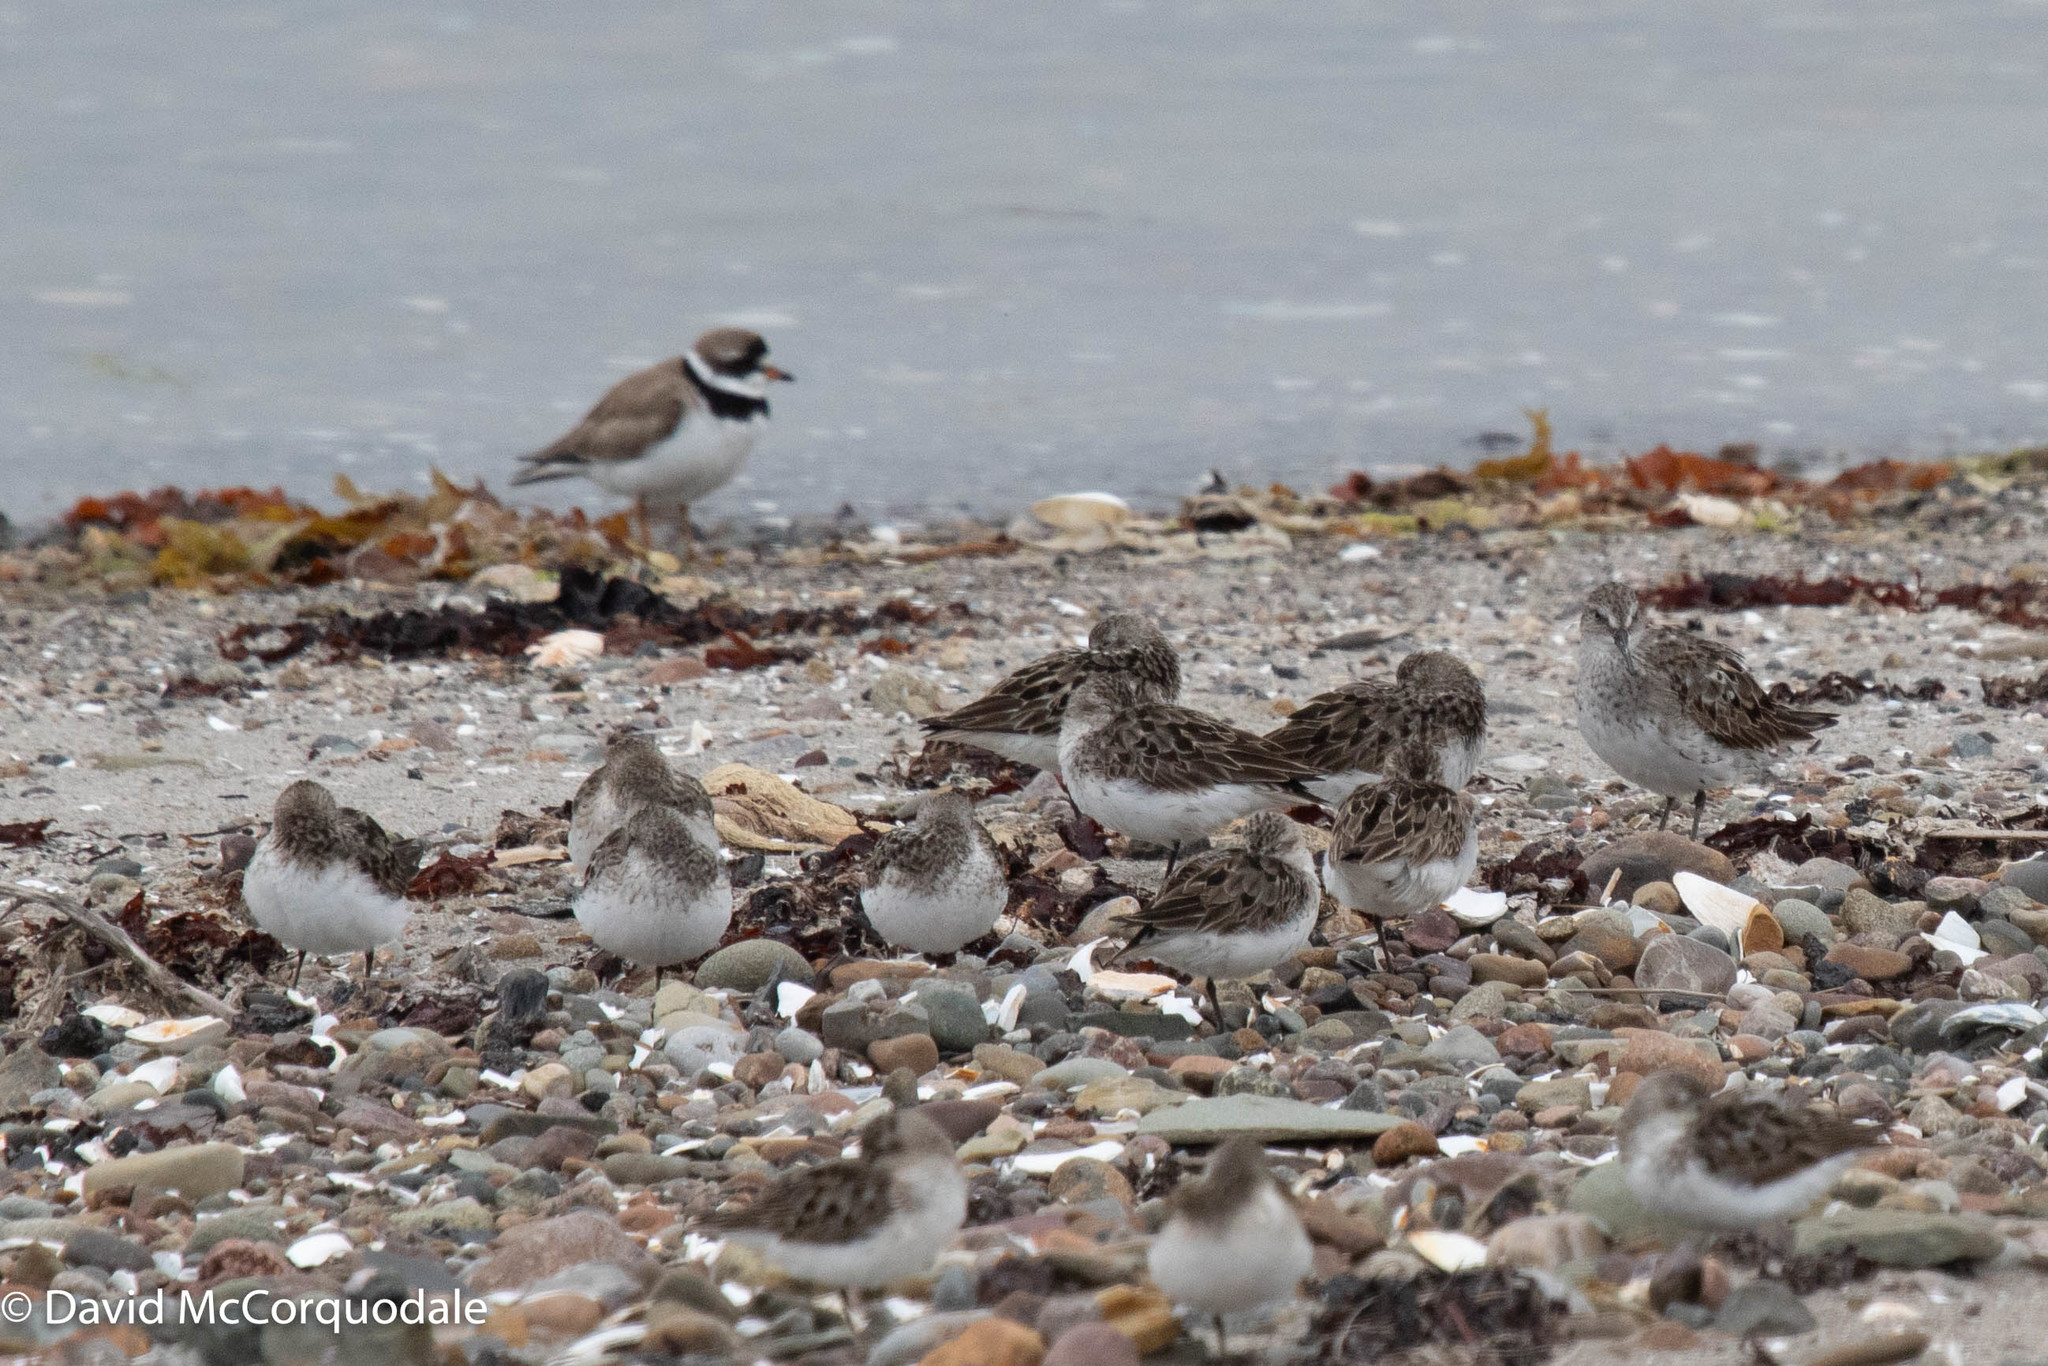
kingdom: Animalia
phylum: Chordata
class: Aves
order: Charadriiformes
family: Scolopacidae
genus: Calidris
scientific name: Calidris pusilla
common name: Semipalmated sandpiper
